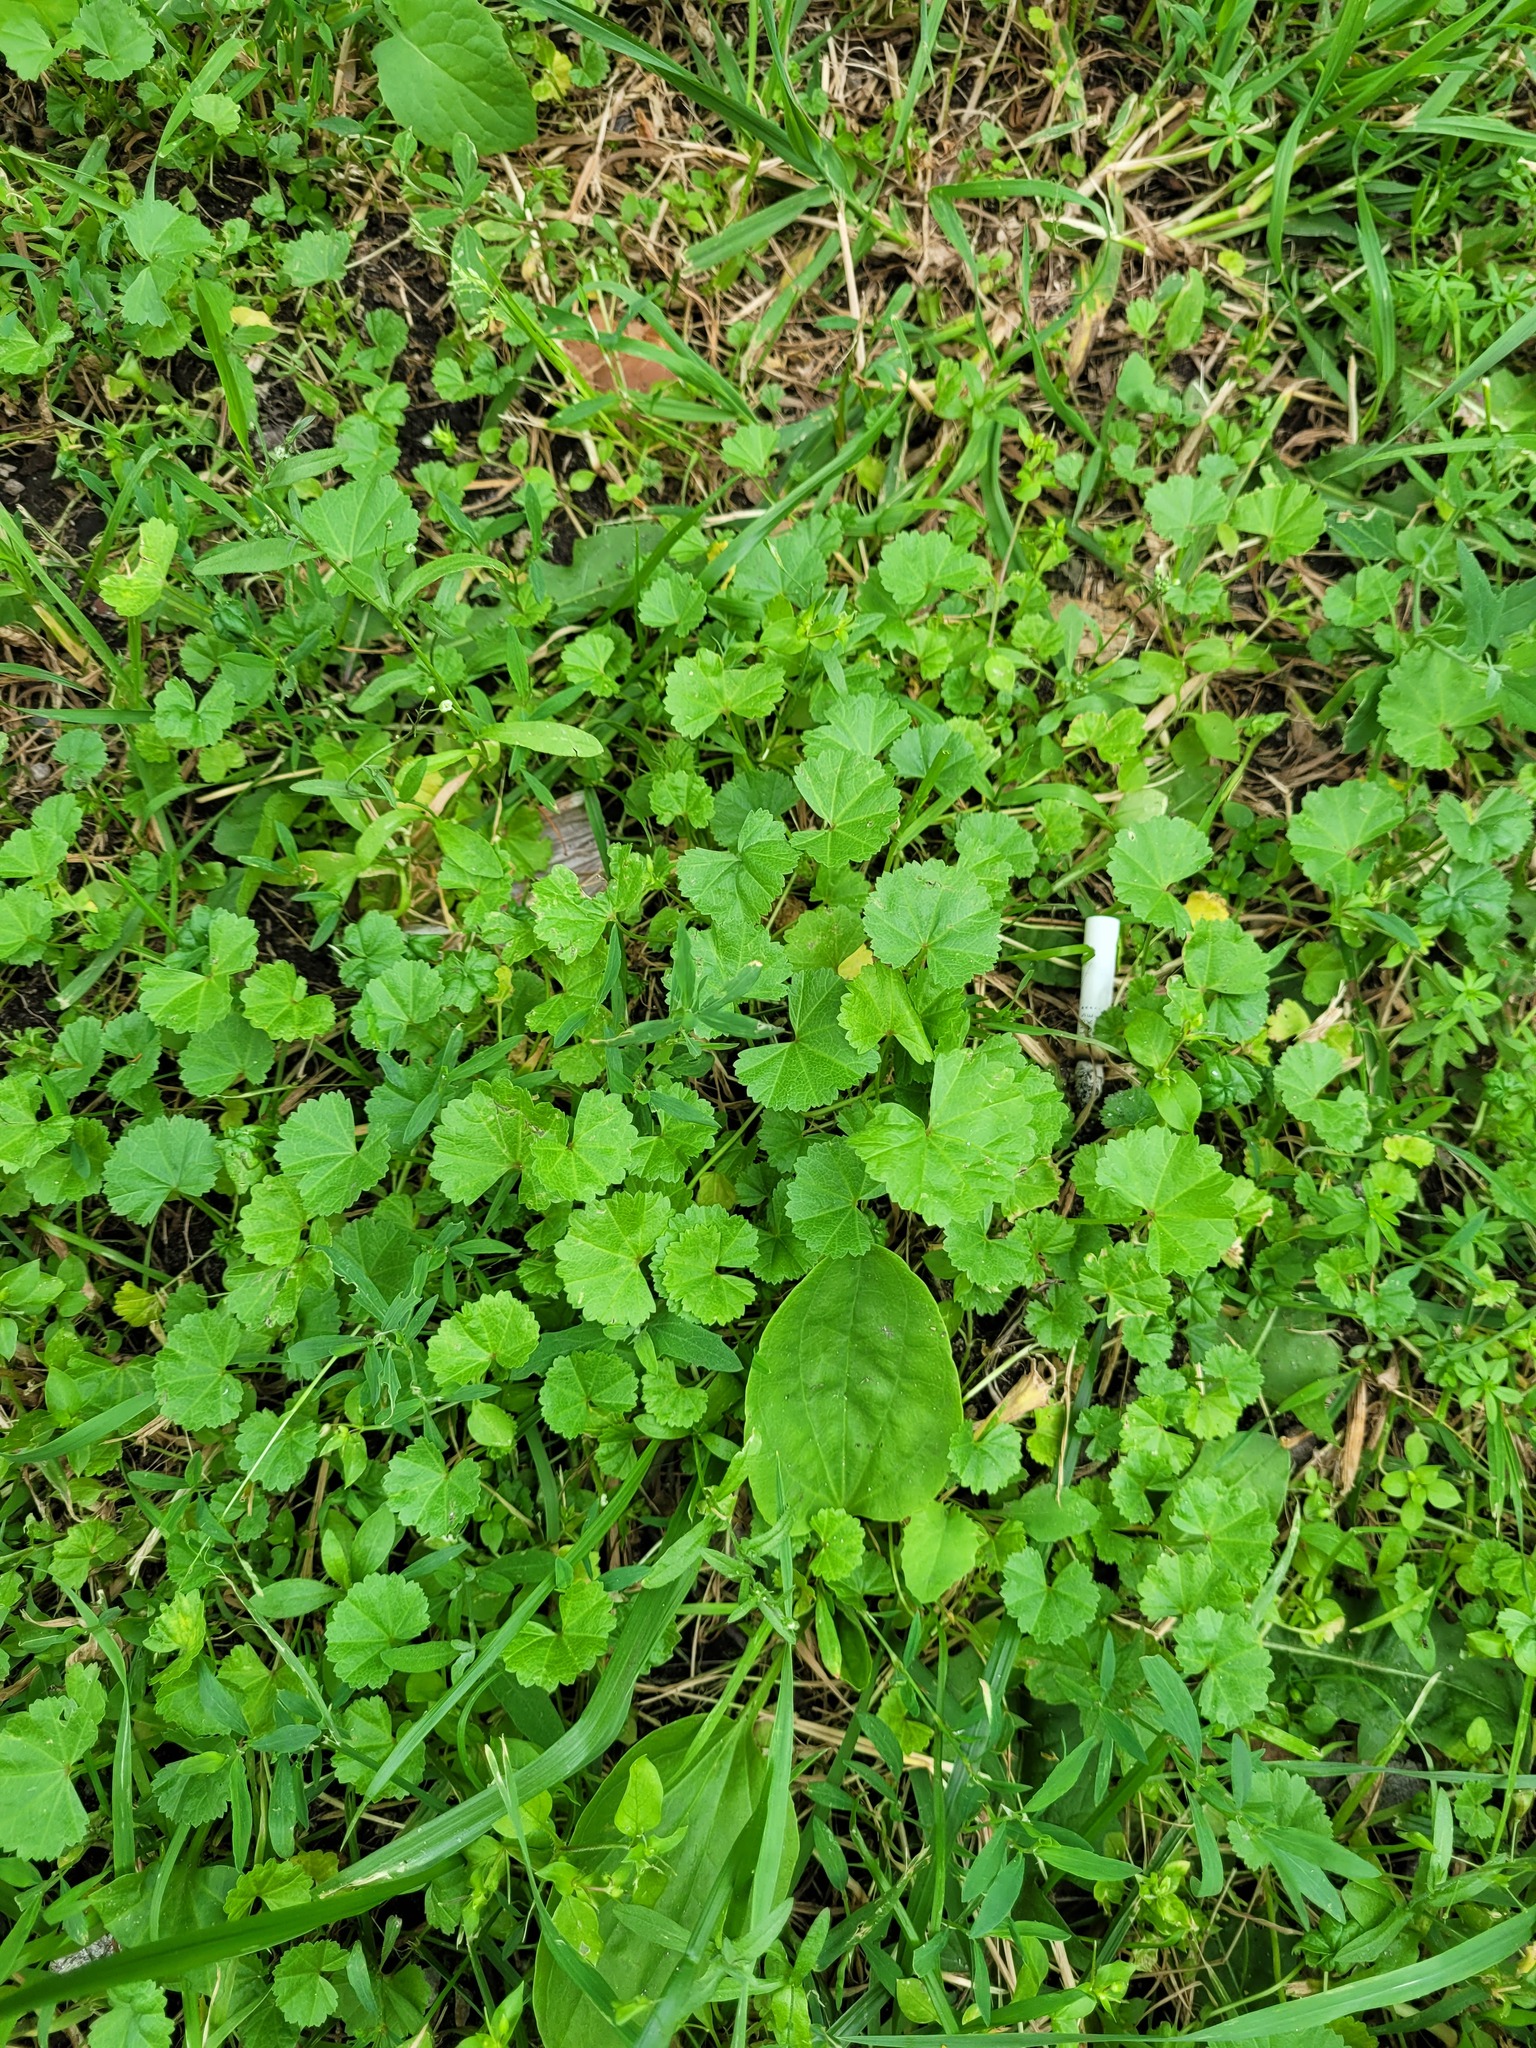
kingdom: Plantae
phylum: Tracheophyta
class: Magnoliopsida
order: Malvales
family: Malvaceae
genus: Malva
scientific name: Malva pusilla
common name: Small mallow
